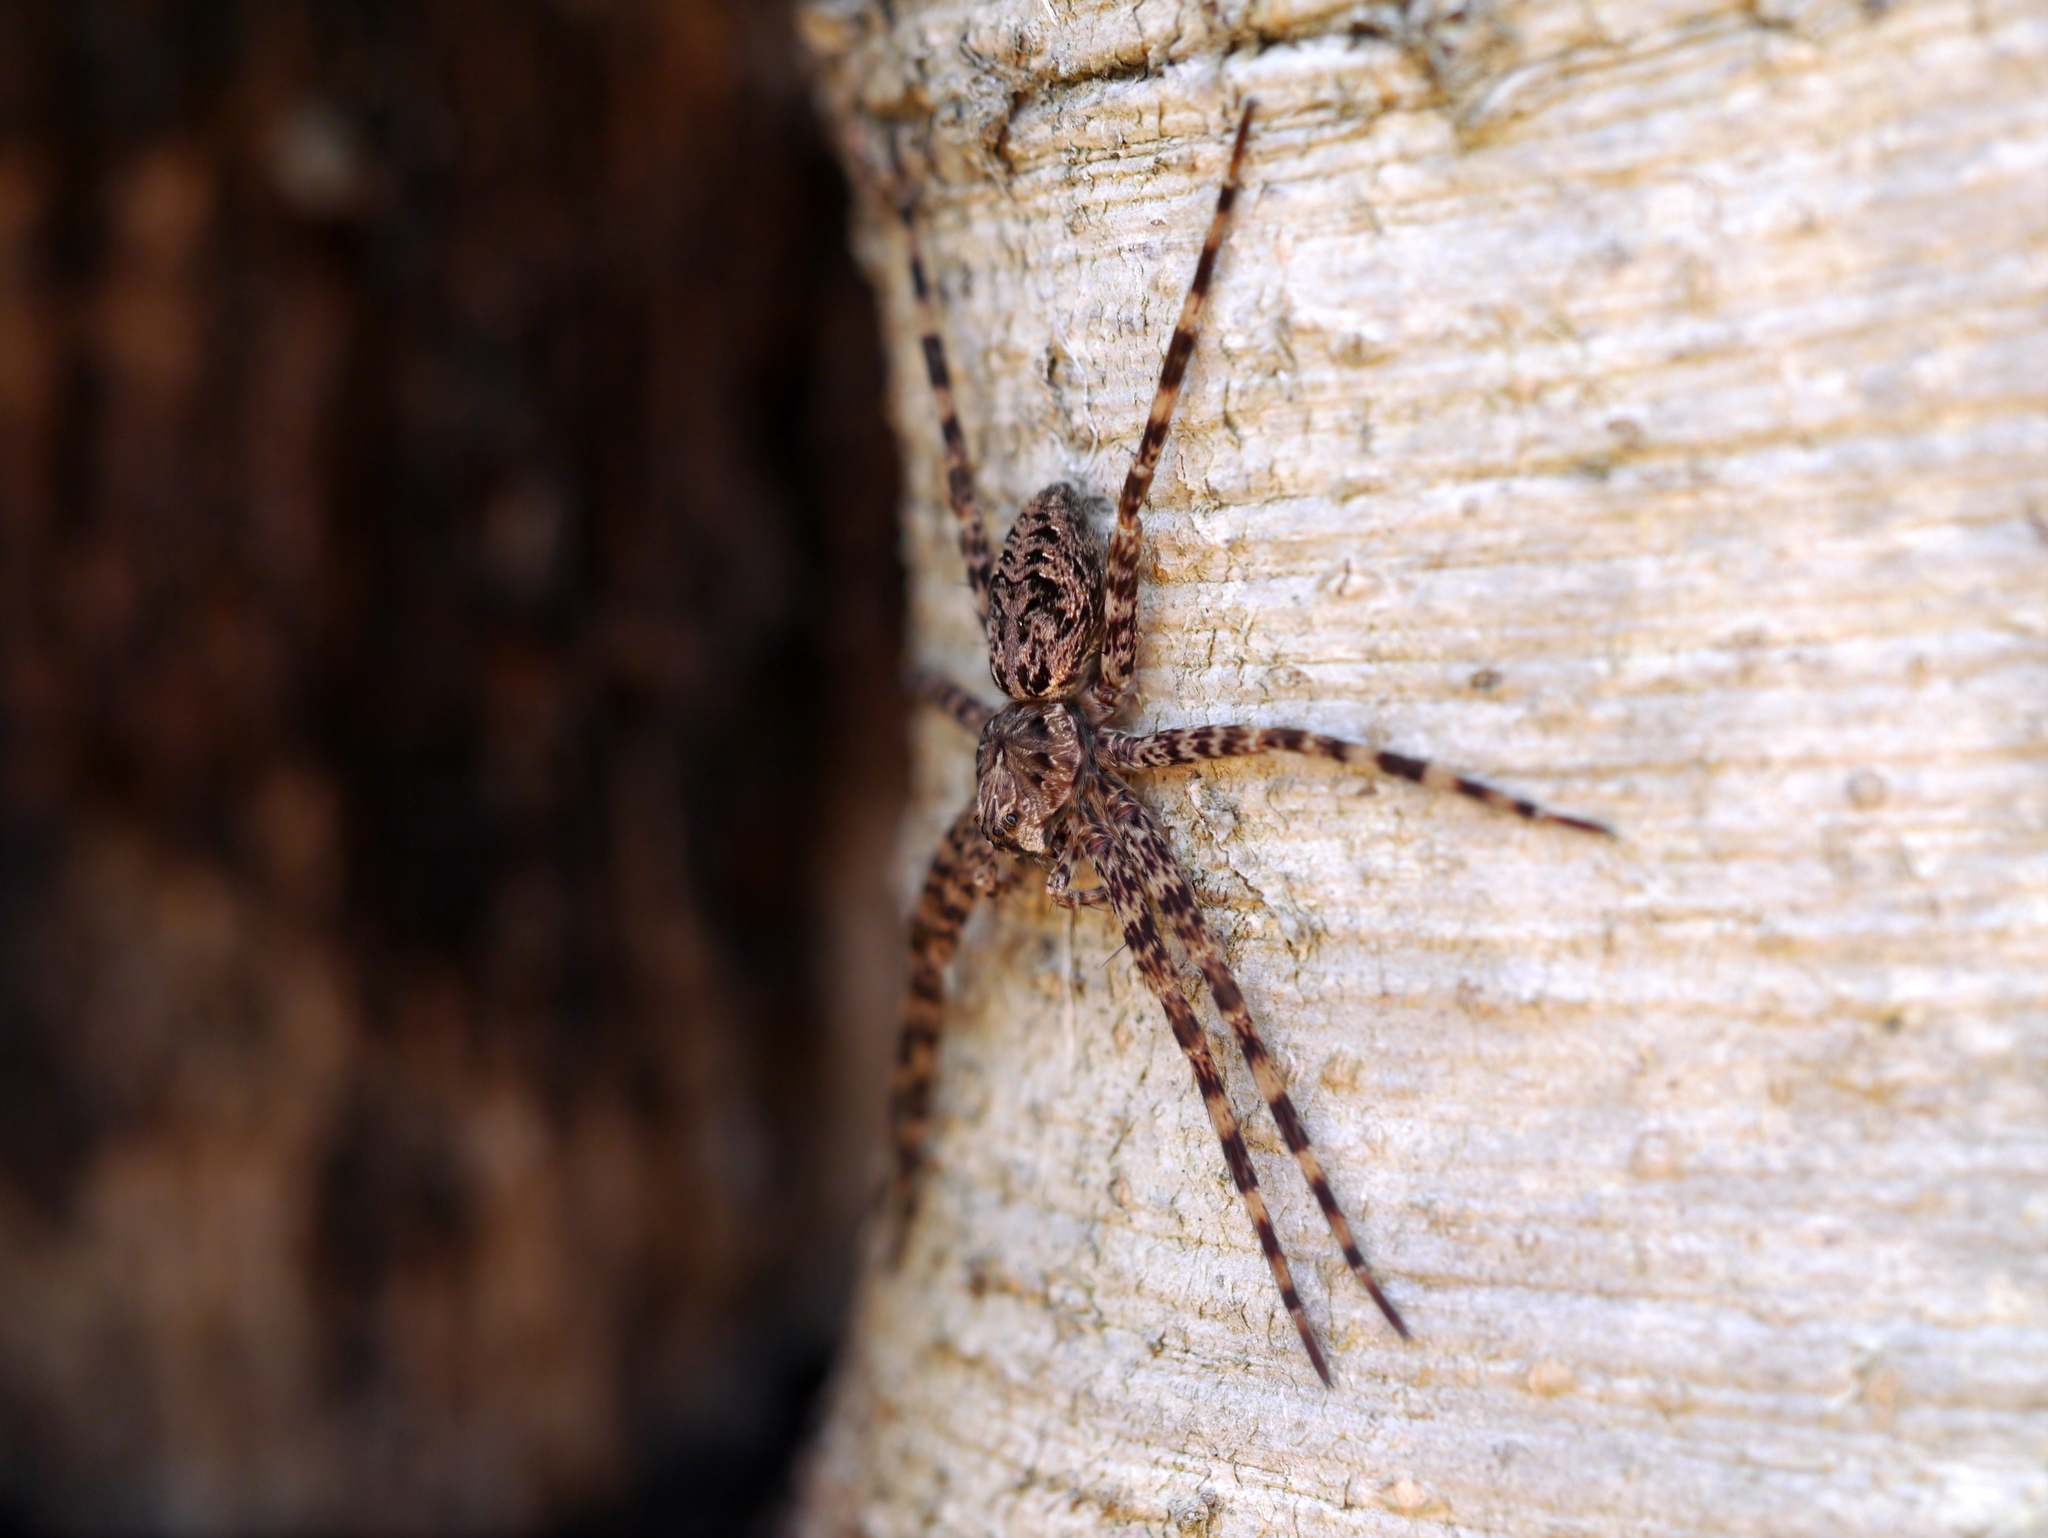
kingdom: Animalia
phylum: Arthropoda
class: Arachnida
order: Araneae
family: Pisauridae
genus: Dolomedes
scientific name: Dolomedes tenebrosus
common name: Dark fishing spider
